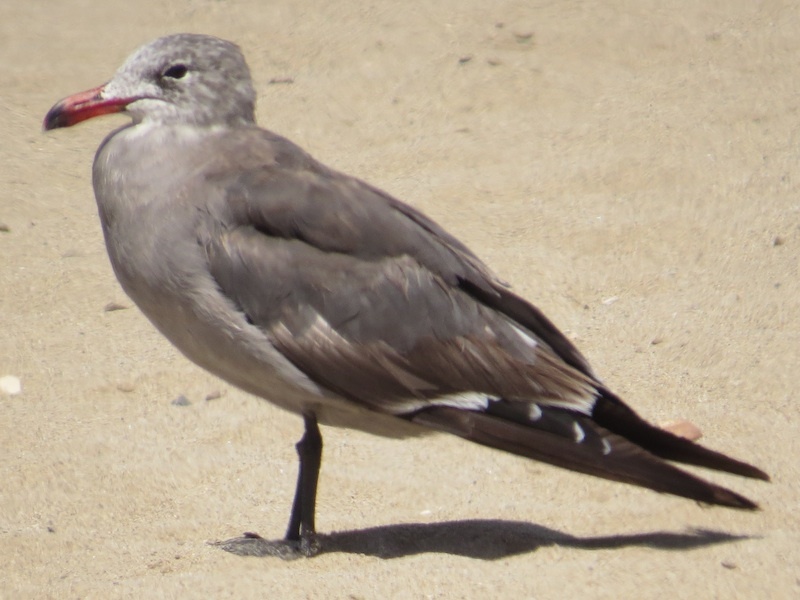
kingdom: Animalia
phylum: Chordata
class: Aves
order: Charadriiformes
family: Laridae
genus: Larus
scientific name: Larus heermanni
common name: Heermann's gull
